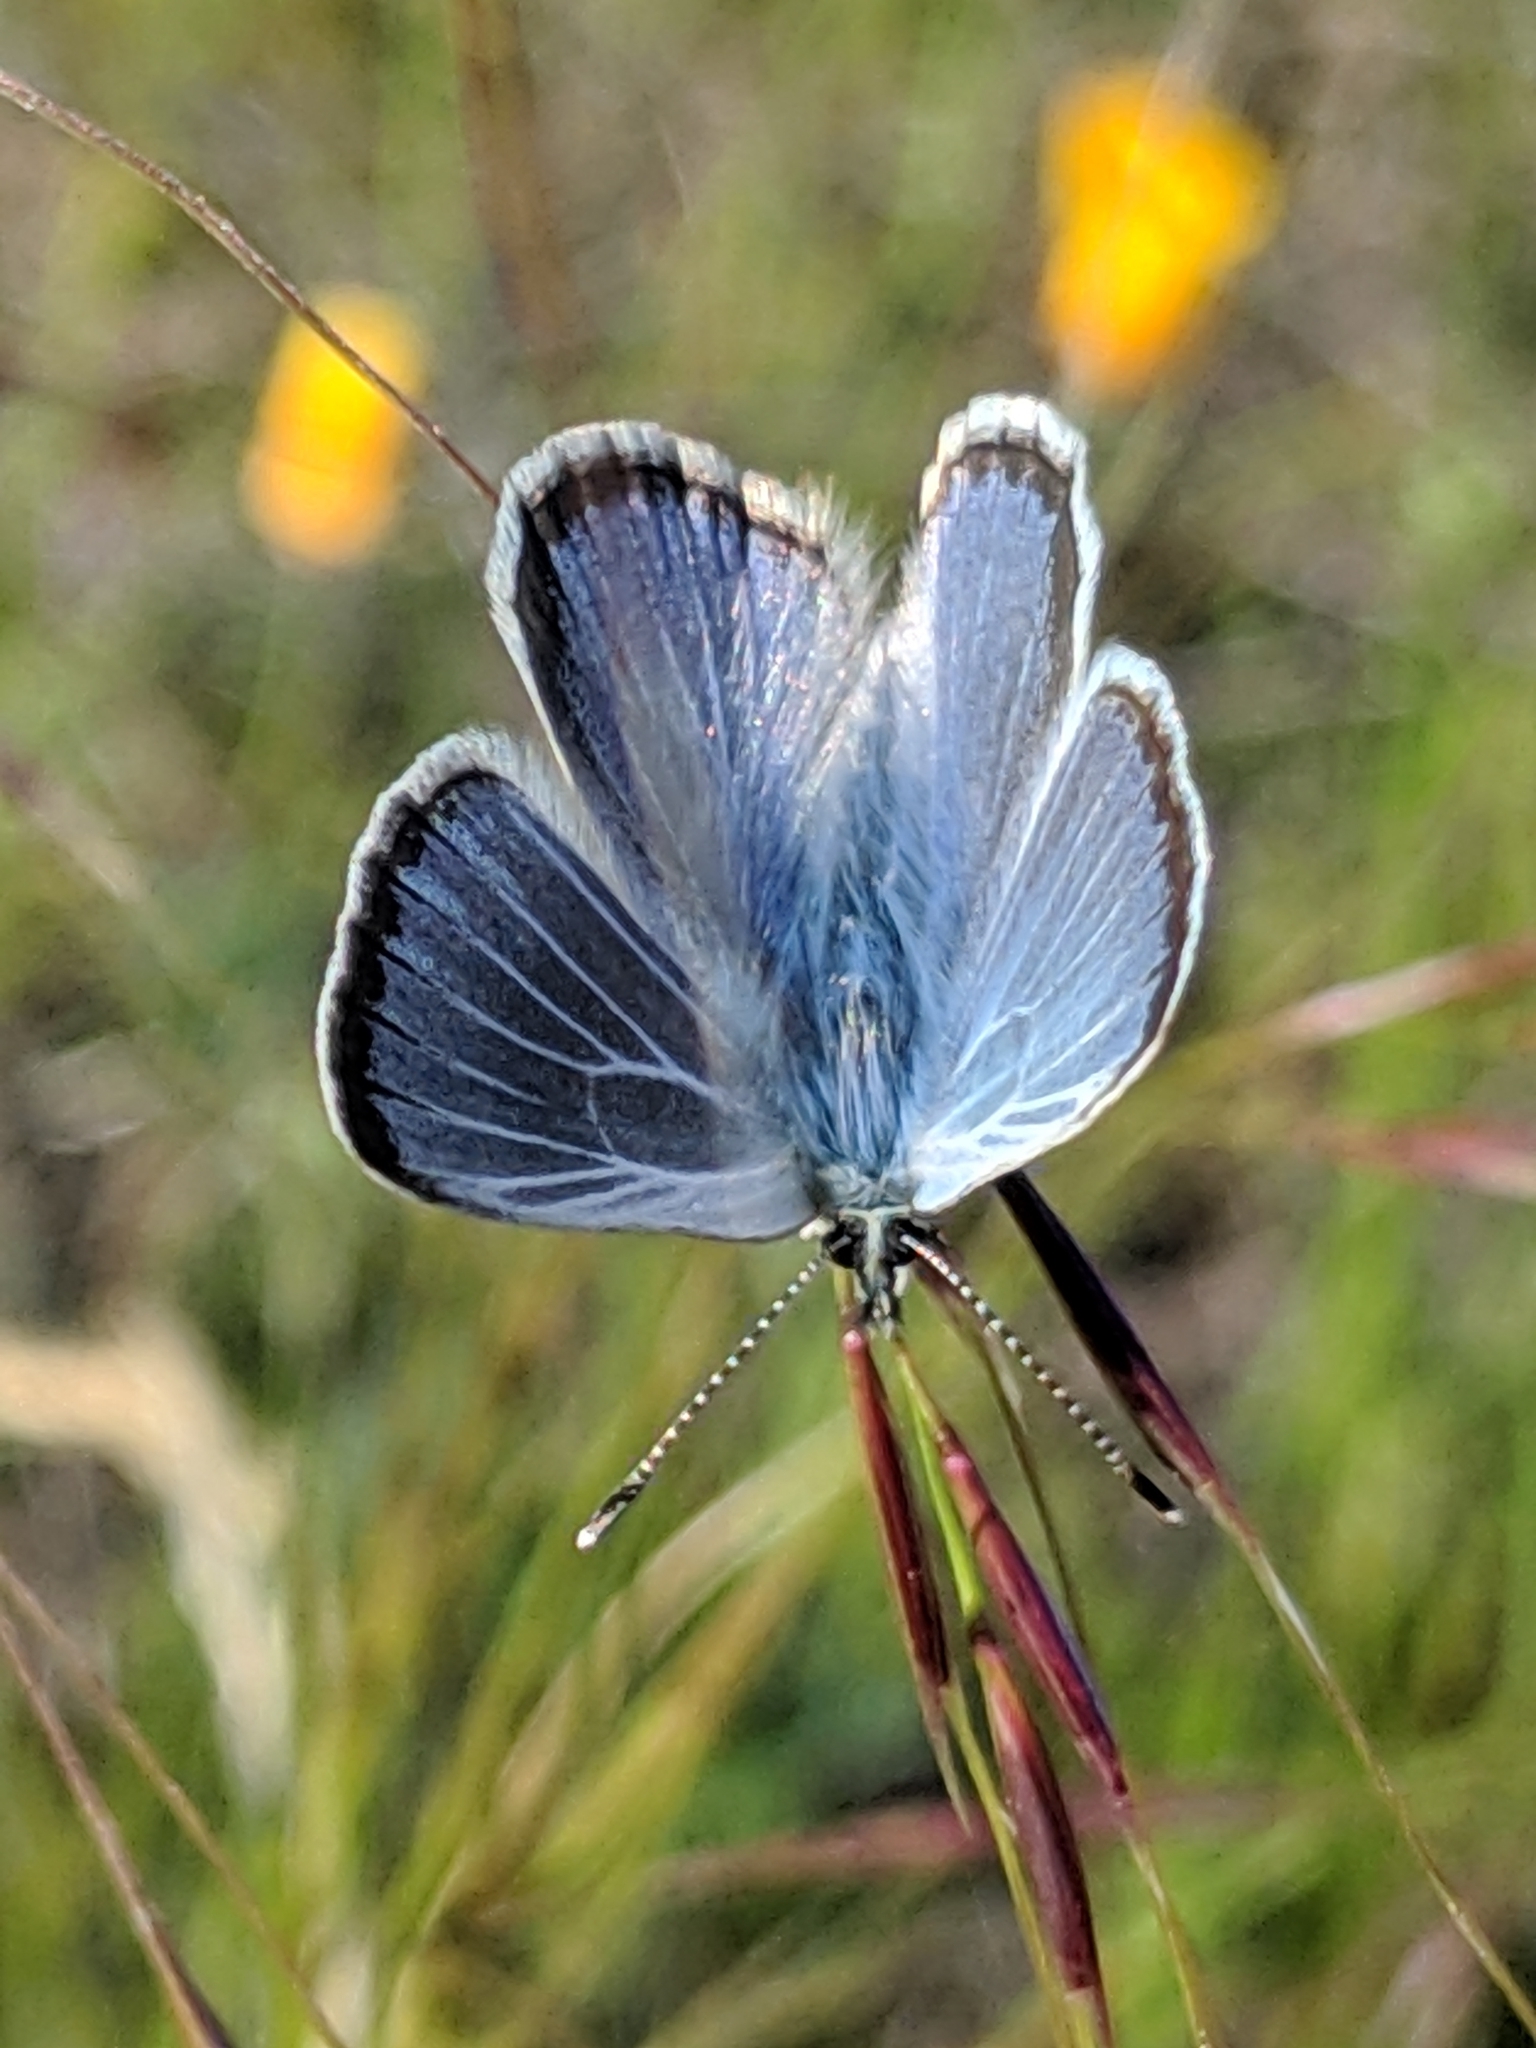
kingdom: Animalia
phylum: Arthropoda
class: Insecta
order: Lepidoptera
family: Lycaenidae
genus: Glaucopsyche
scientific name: Glaucopsyche lygdamus
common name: Silvery blue
